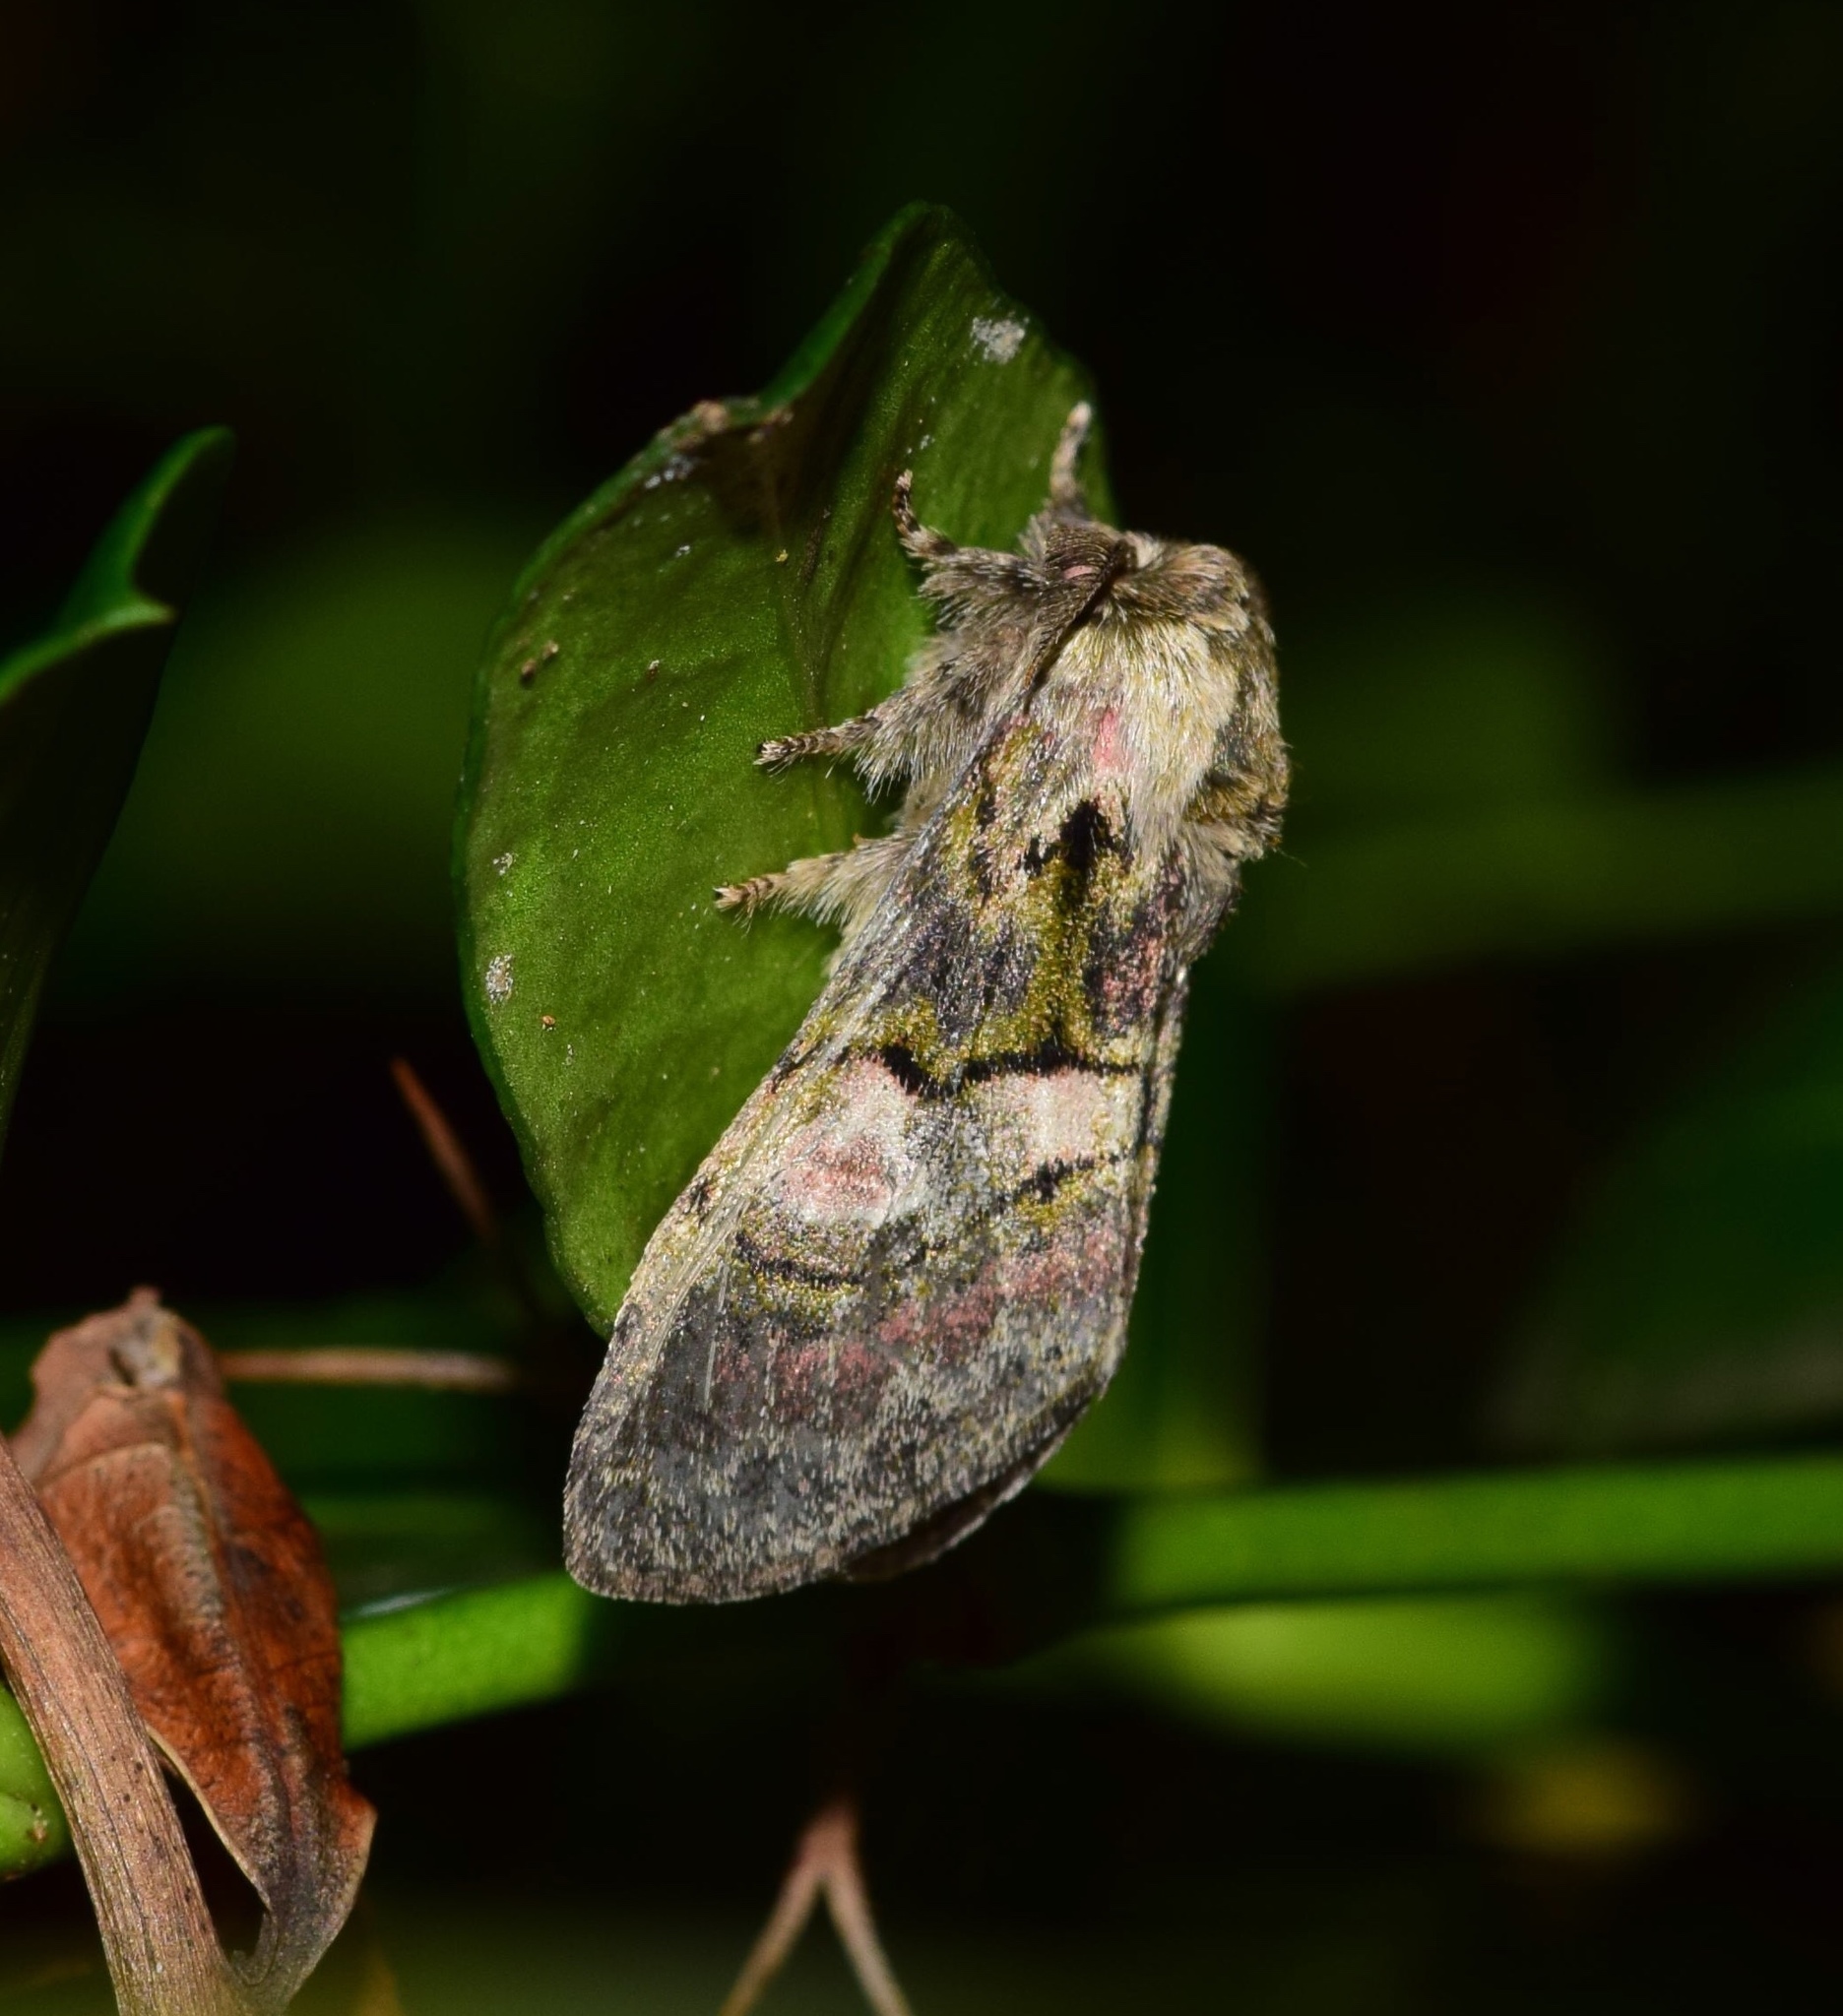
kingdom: Animalia
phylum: Arthropoda
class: Insecta
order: Lepidoptera
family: Notodontidae
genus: Rhenea
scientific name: Rhenea michii
